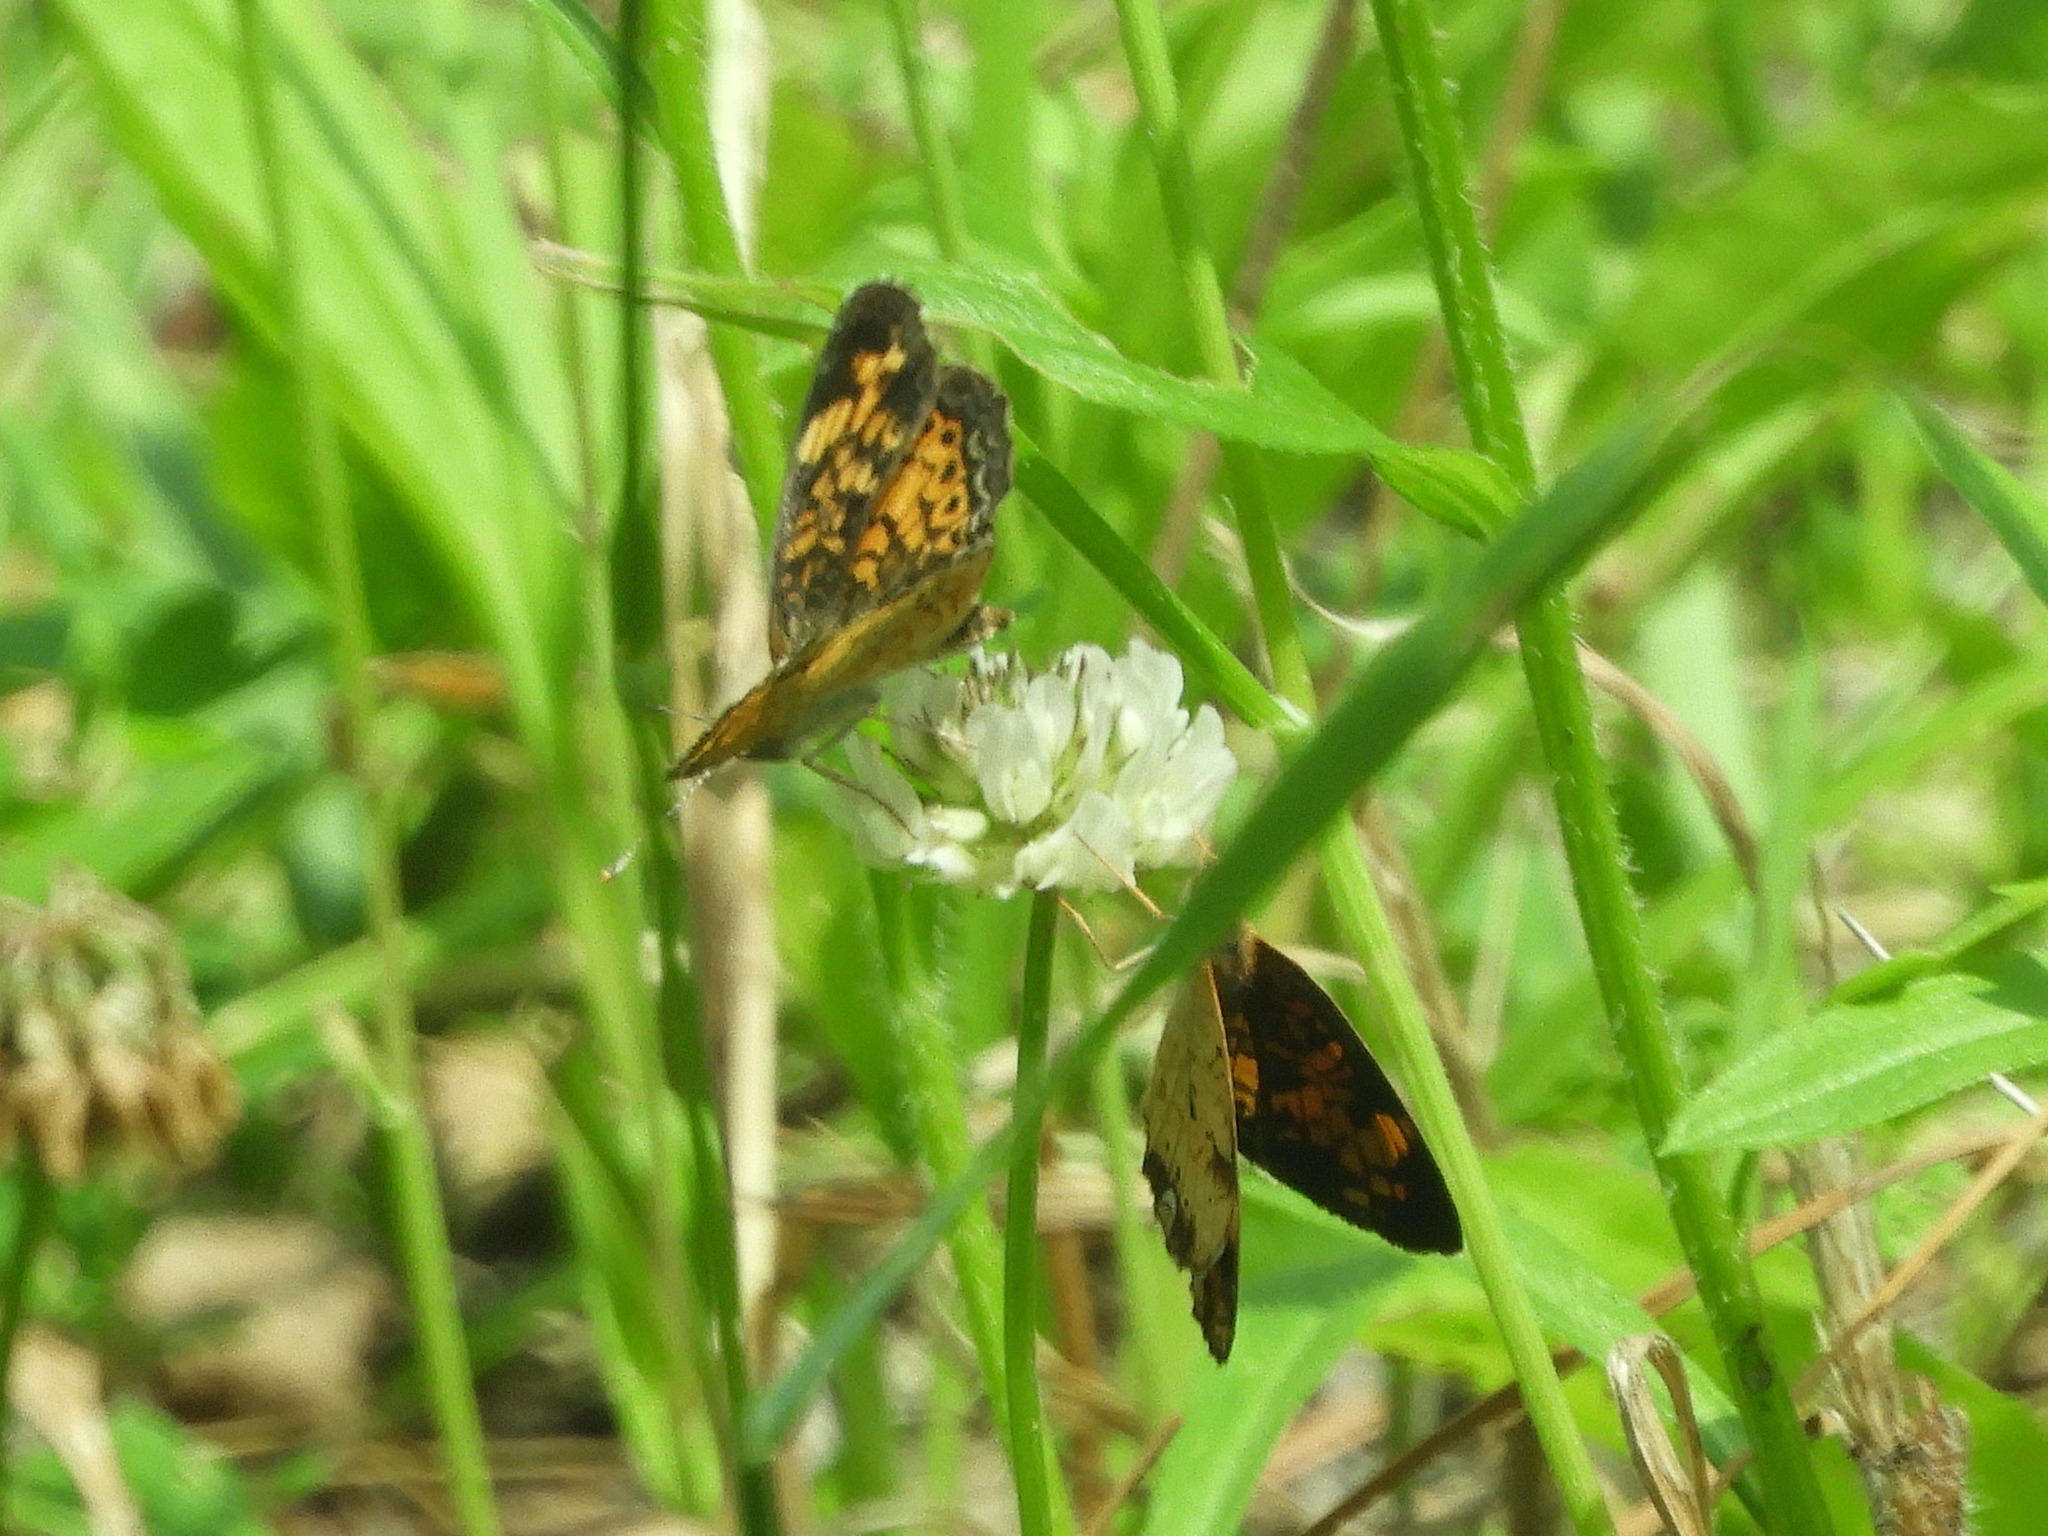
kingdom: Animalia
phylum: Arthropoda
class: Insecta
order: Lepidoptera
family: Nymphalidae
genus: Phyciodes
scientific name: Phyciodes tharos
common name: Pearl crescent
